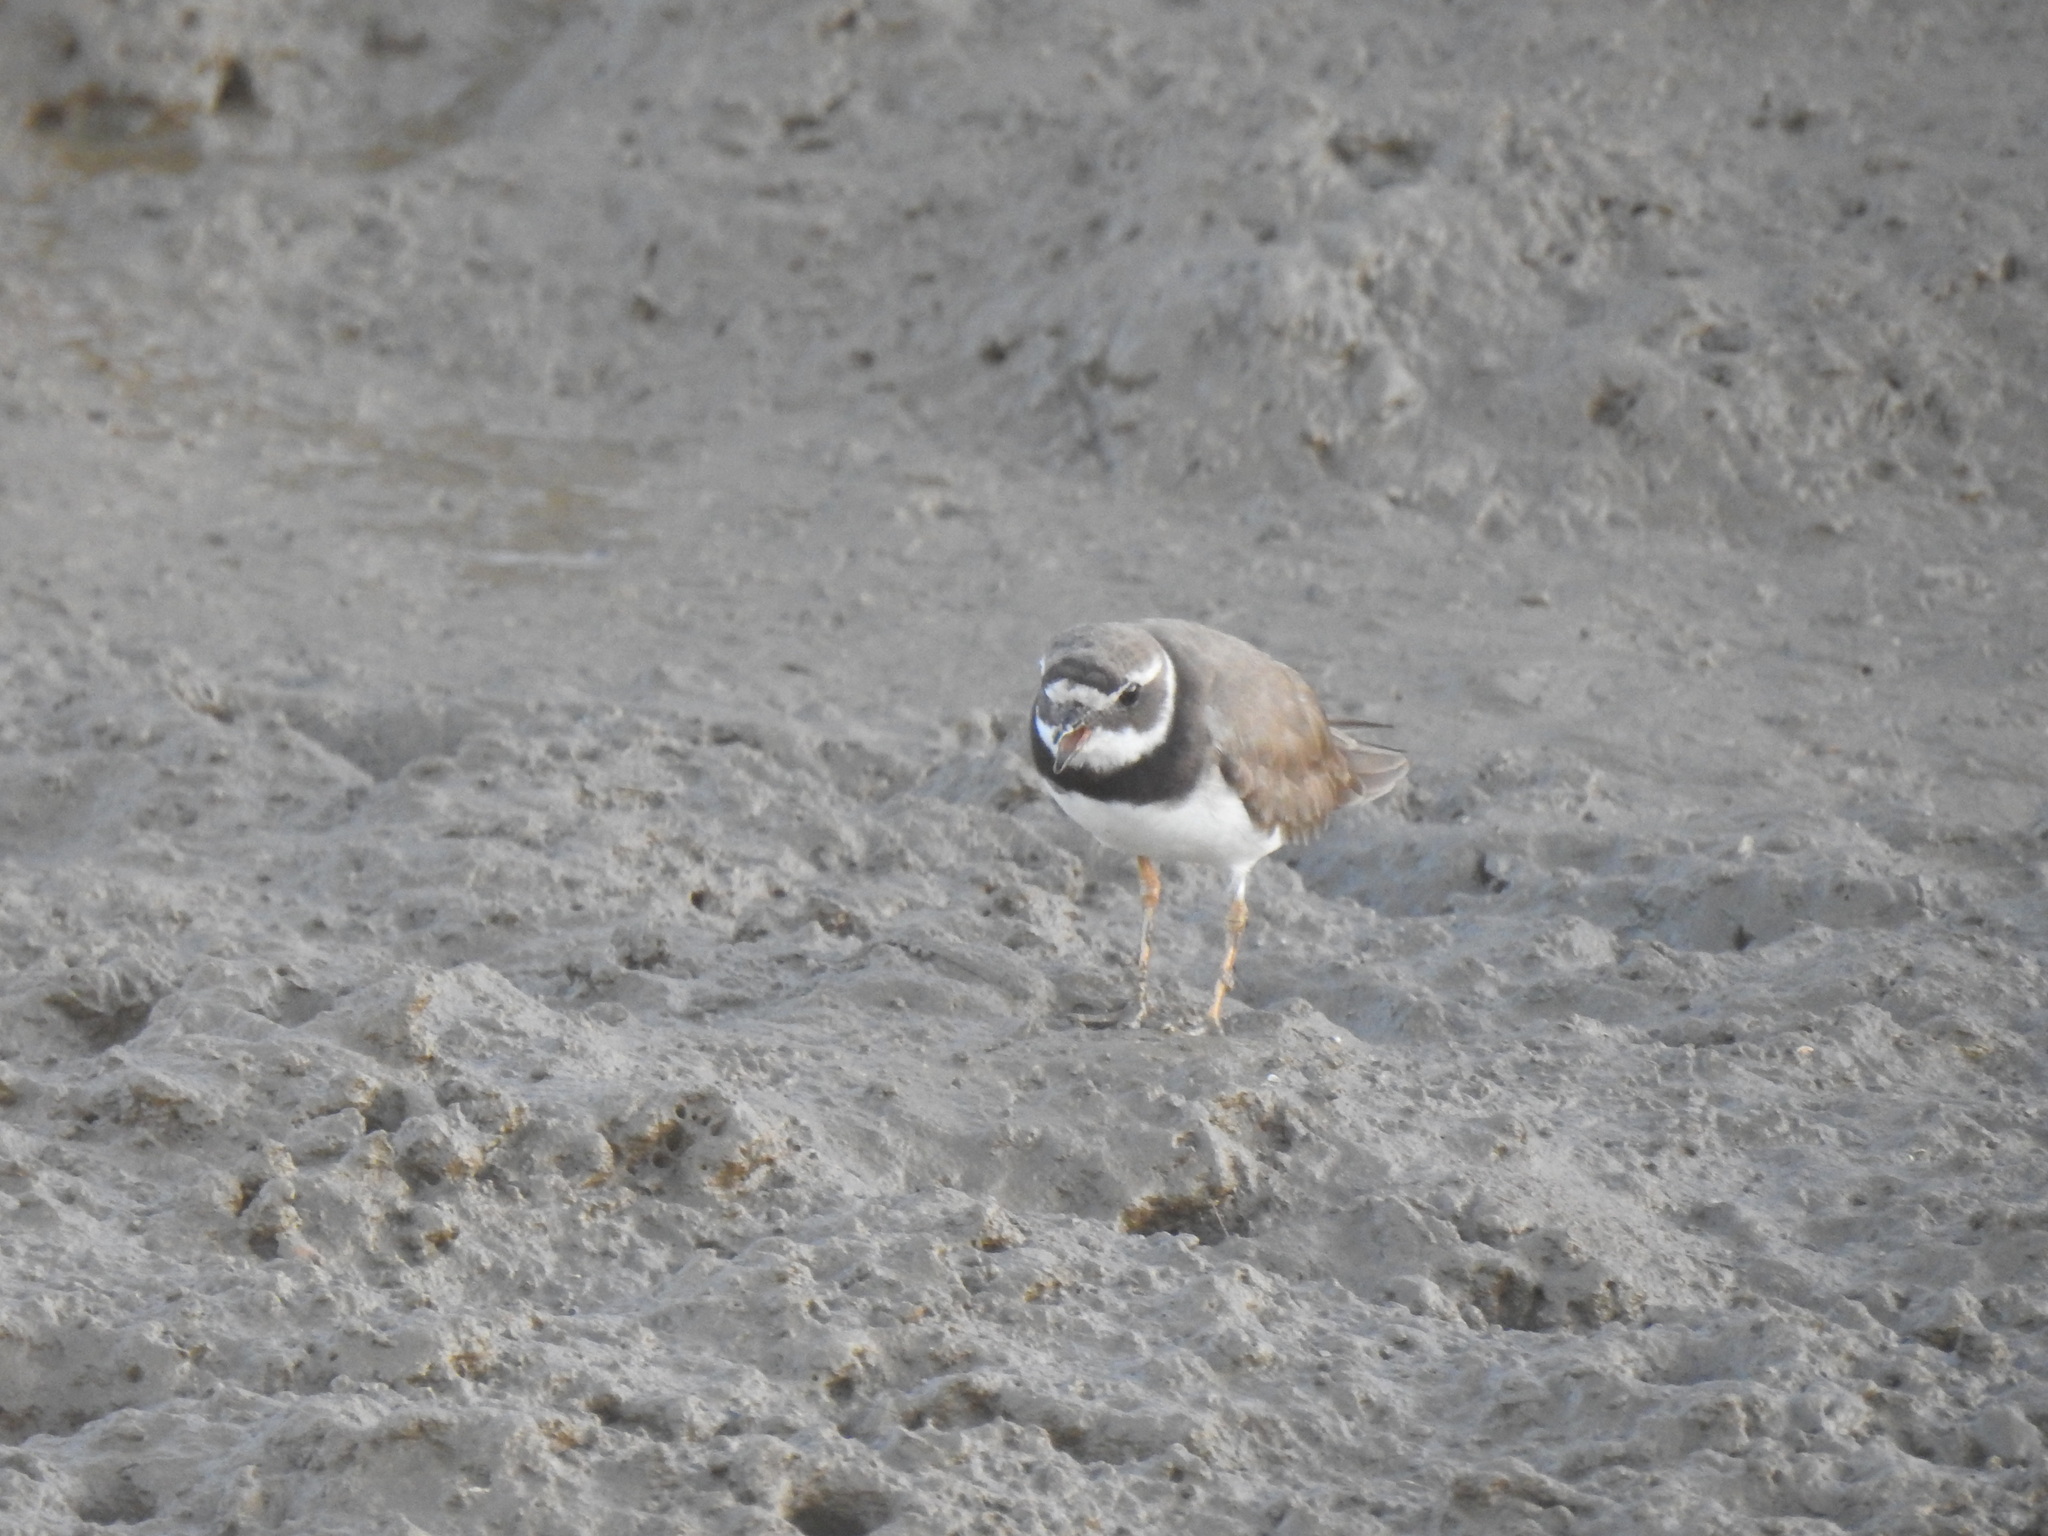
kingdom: Animalia
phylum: Chordata
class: Aves
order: Charadriiformes
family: Charadriidae
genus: Charadrius
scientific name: Charadrius hiaticula
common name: Common ringed plover
